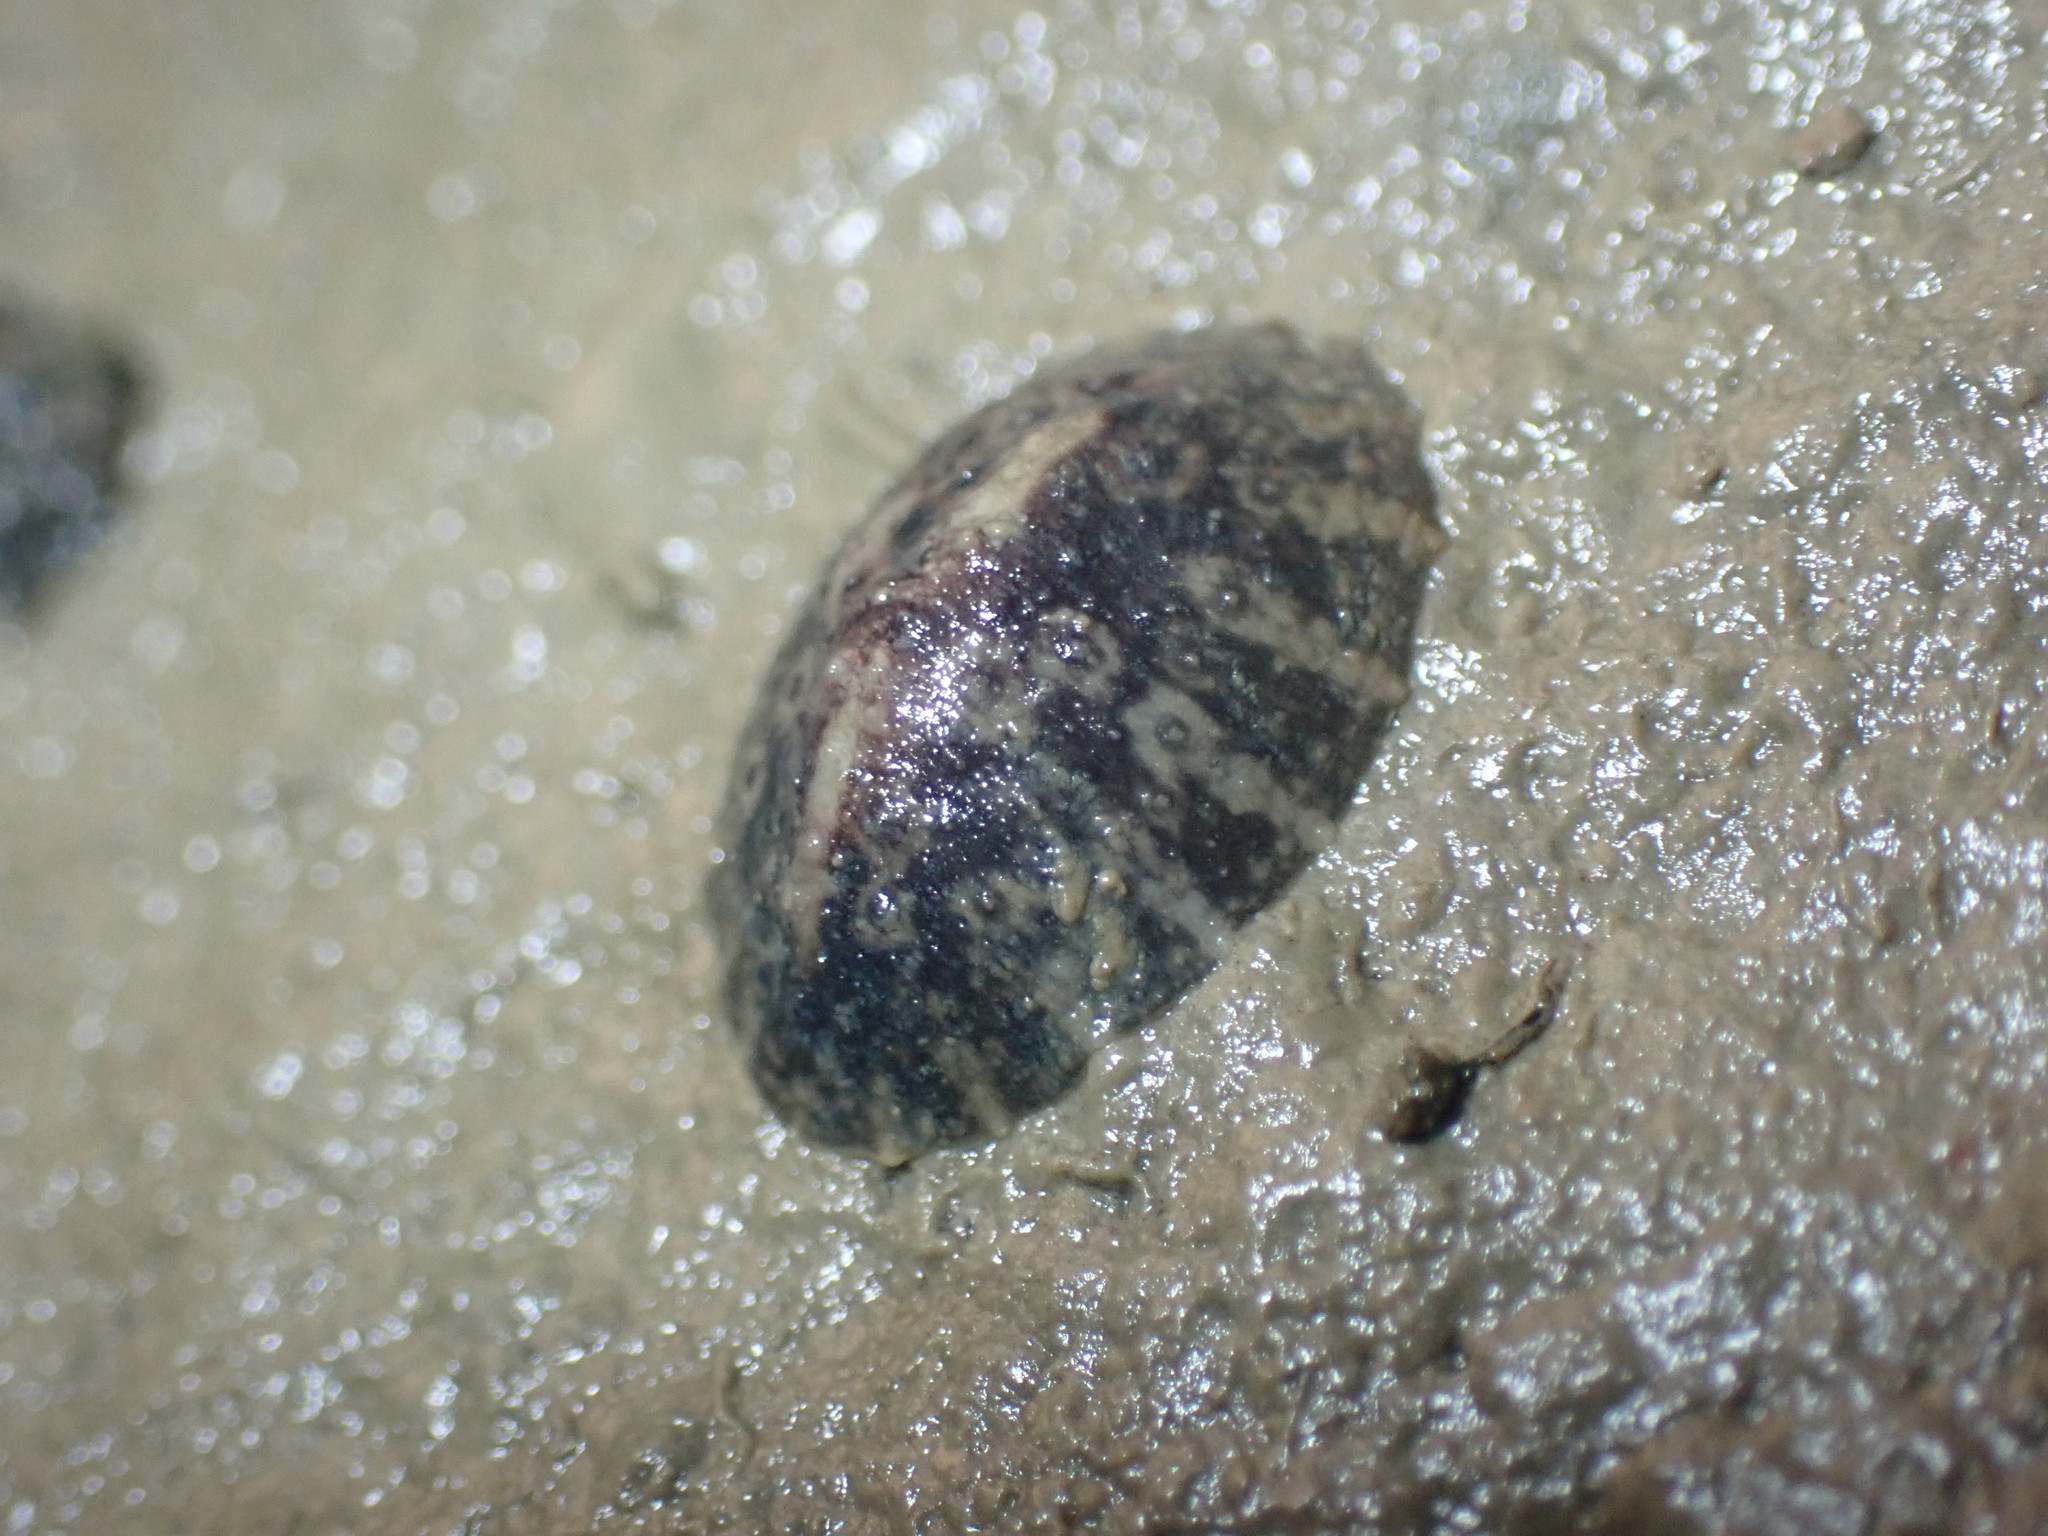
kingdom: Animalia
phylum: Mollusca
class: Gastropoda
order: Systellommatophora
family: Onchidiidae
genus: Onchidella
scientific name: Onchidella nigricans
